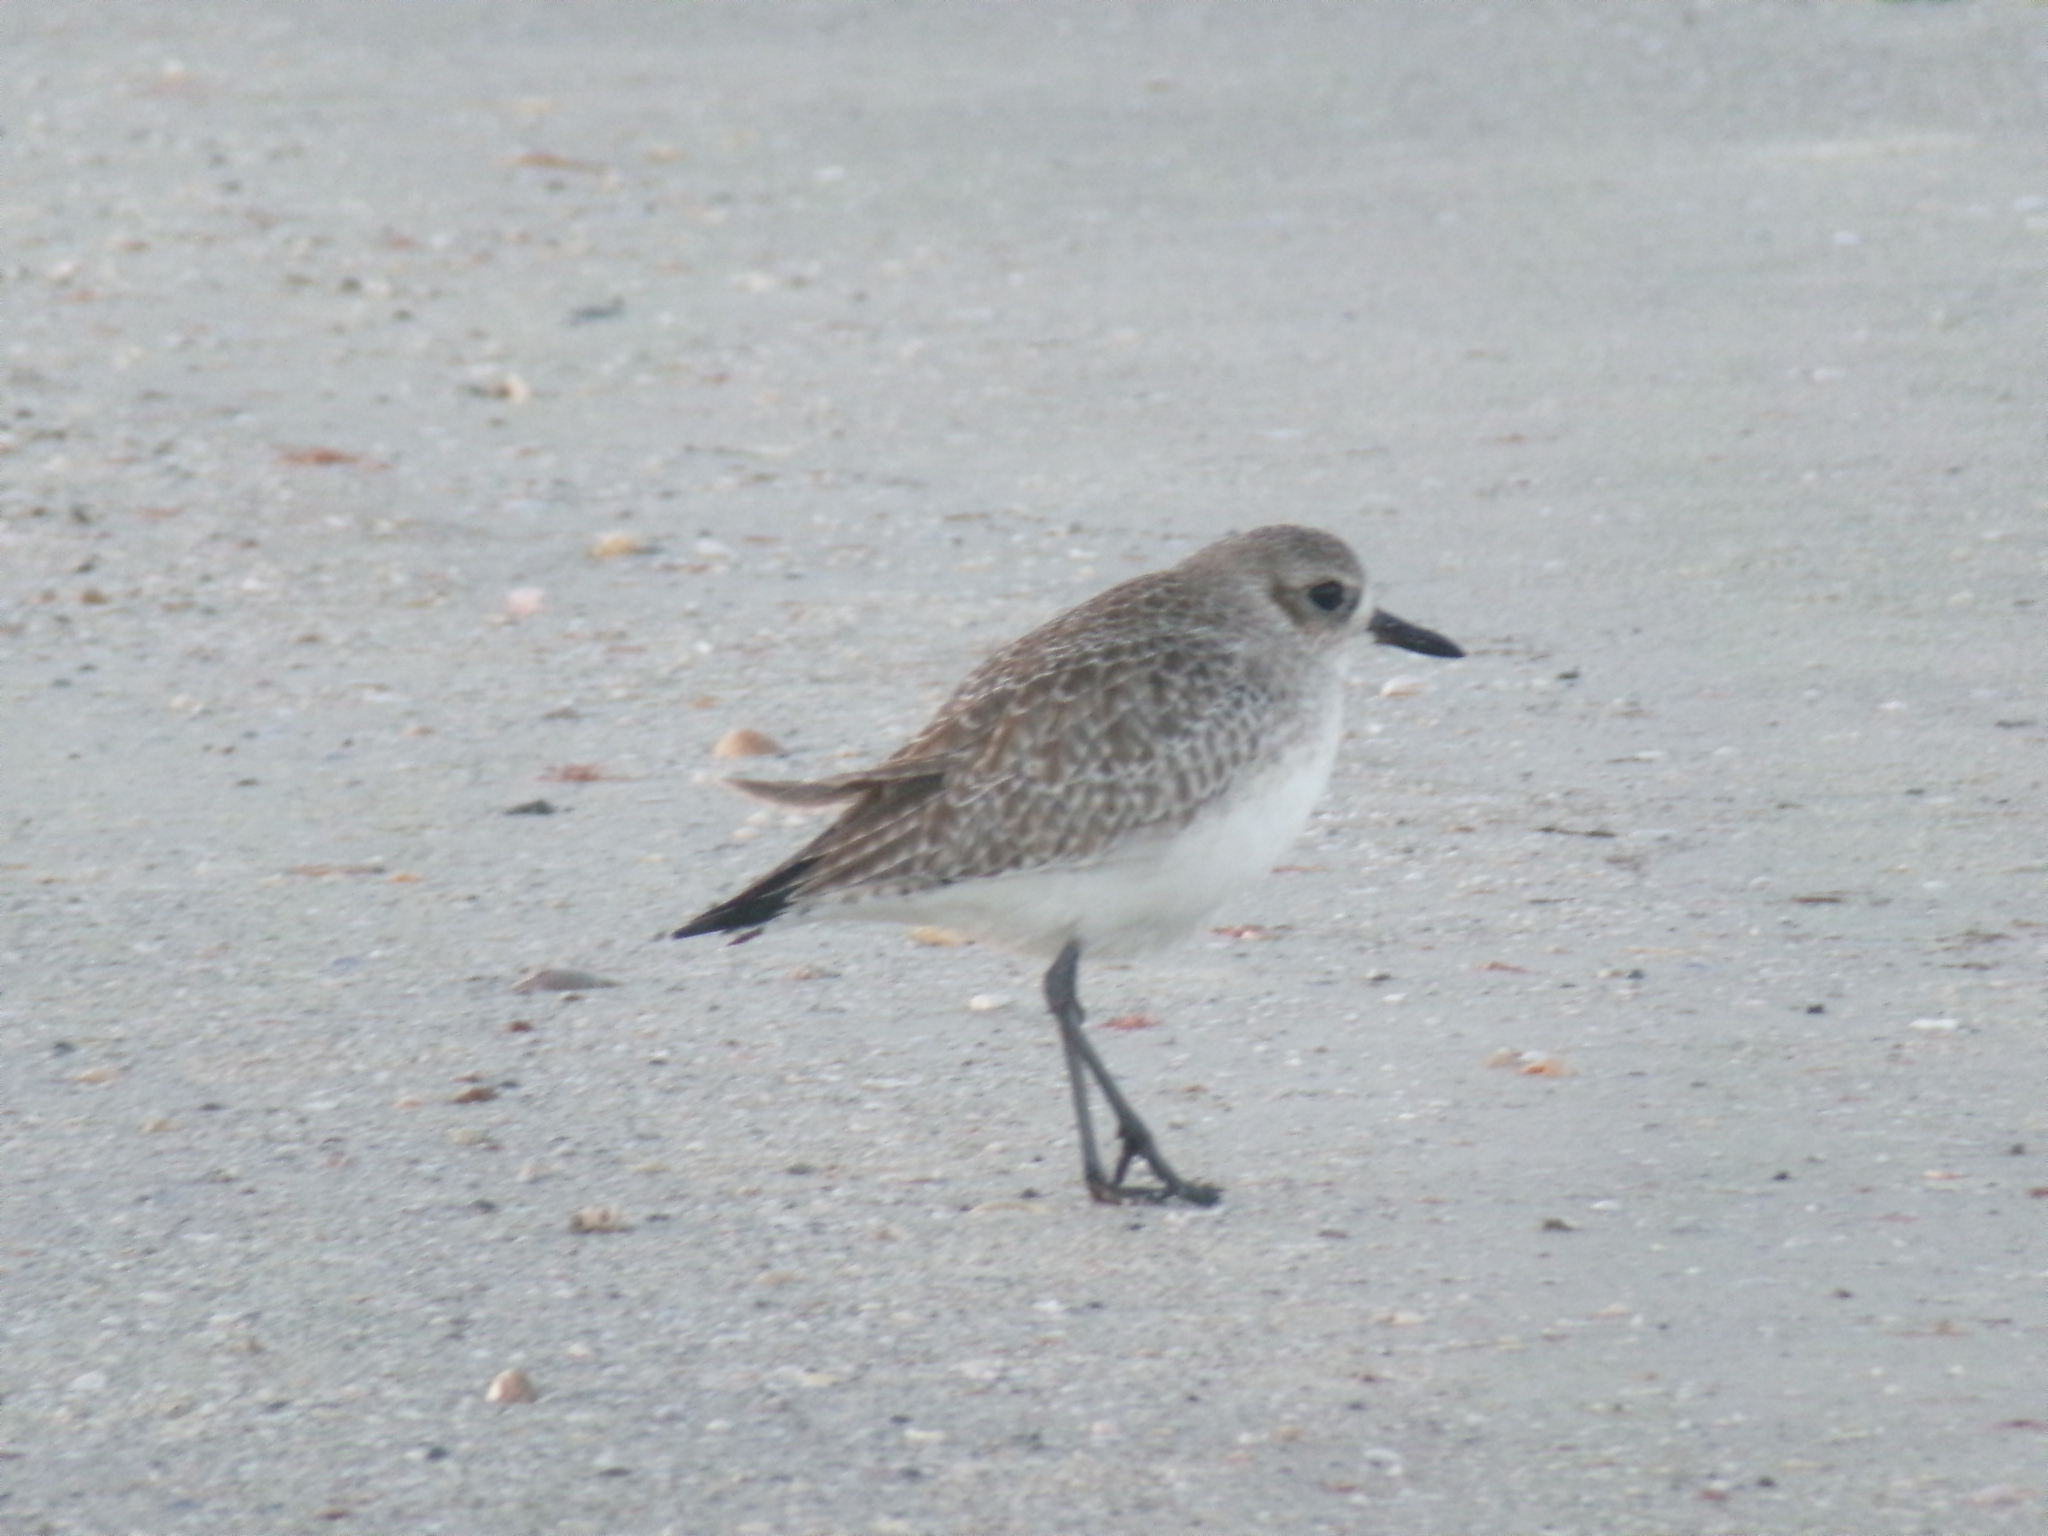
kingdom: Animalia
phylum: Chordata
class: Aves
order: Charadriiformes
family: Charadriidae
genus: Pluvialis
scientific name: Pluvialis squatarola
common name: Grey plover
